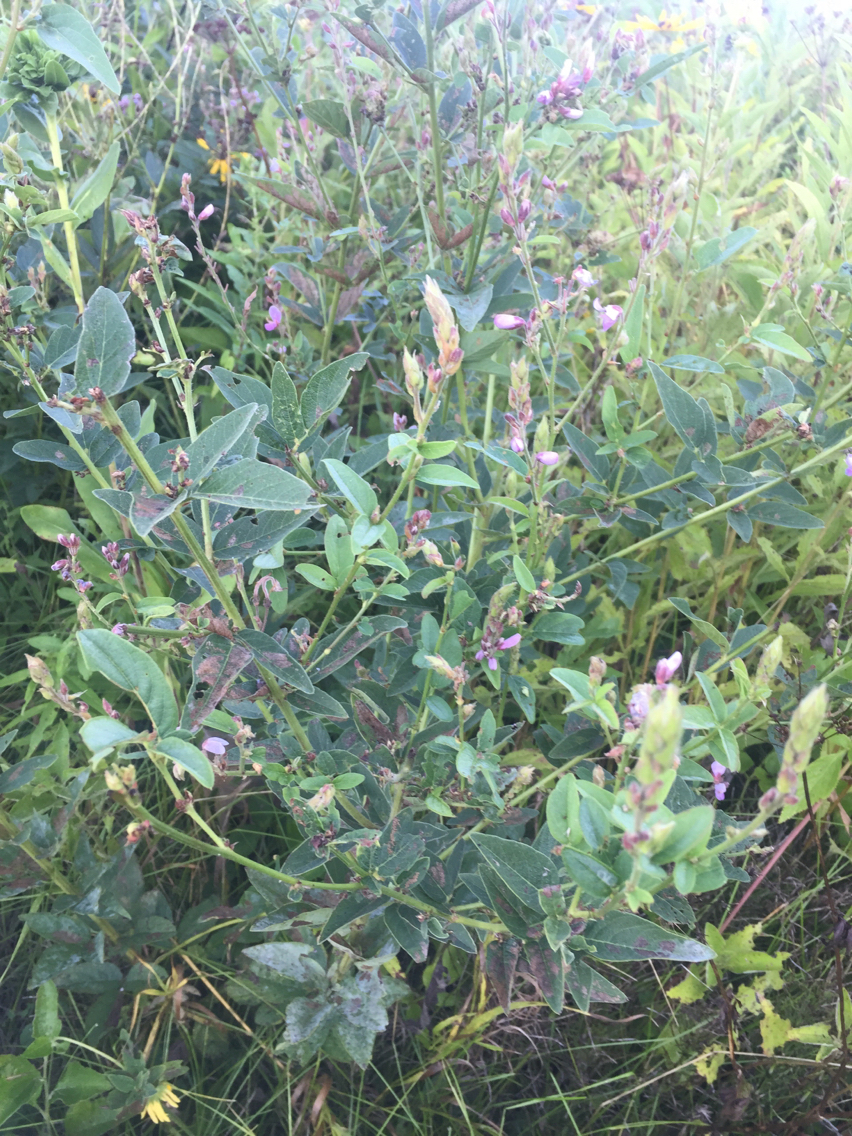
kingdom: Plantae
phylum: Tracheophyta
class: Magnoliopsida
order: Fabales
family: Fabaceae
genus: Desmodium
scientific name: Desmodium canadense
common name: Canada tick-trefoil
